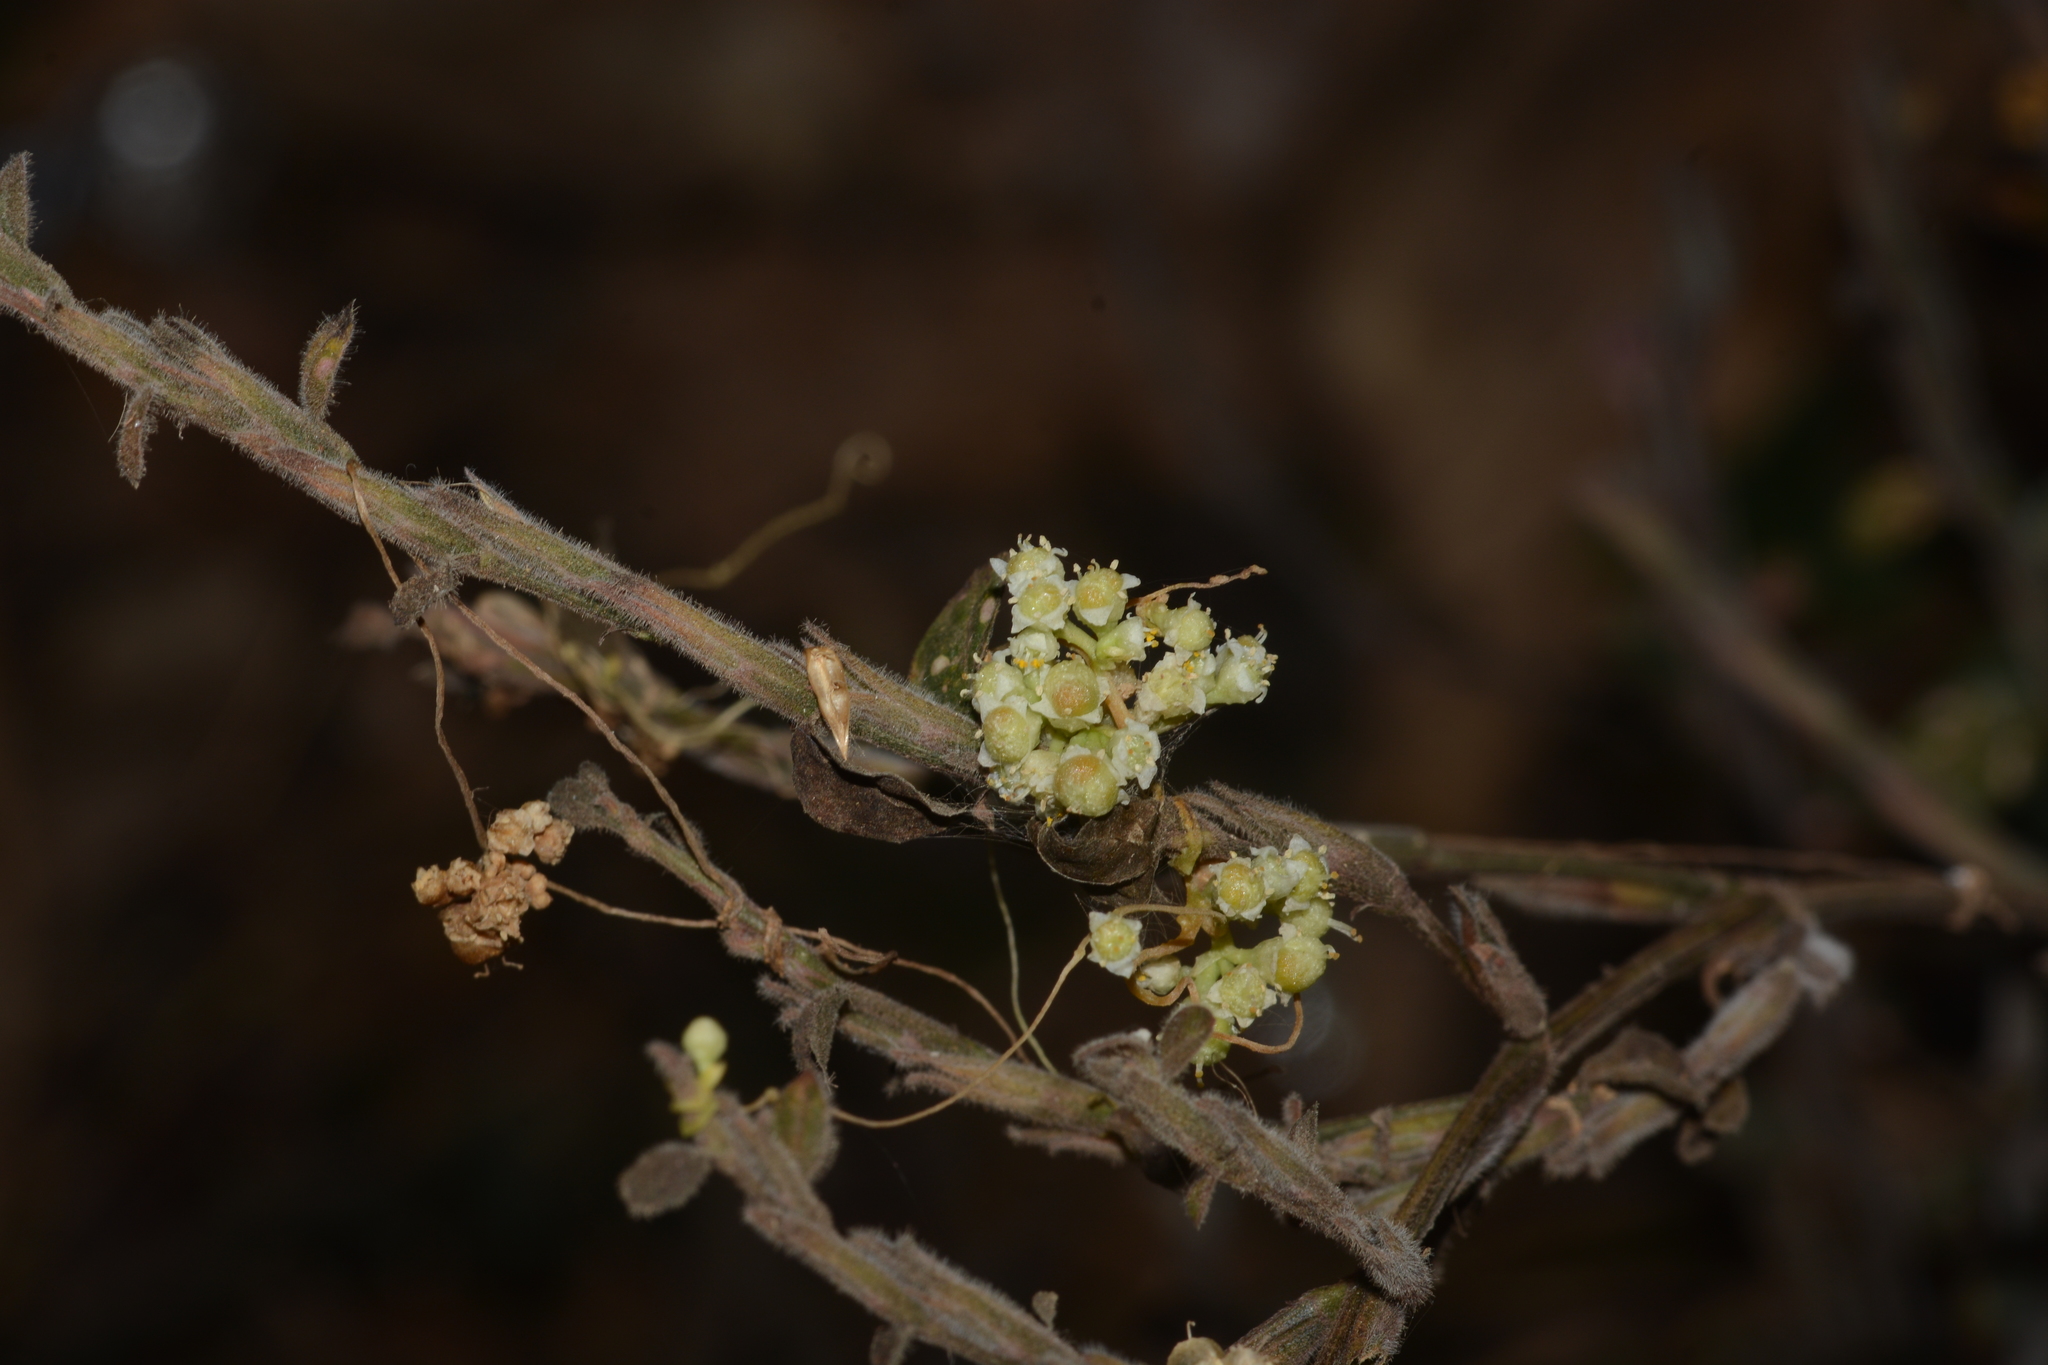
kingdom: Plantae
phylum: Tracheophyta
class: Magnoliopsida
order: Solanales
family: Convolvulaceae
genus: Cuscuta
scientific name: Cuscuta chinensis
